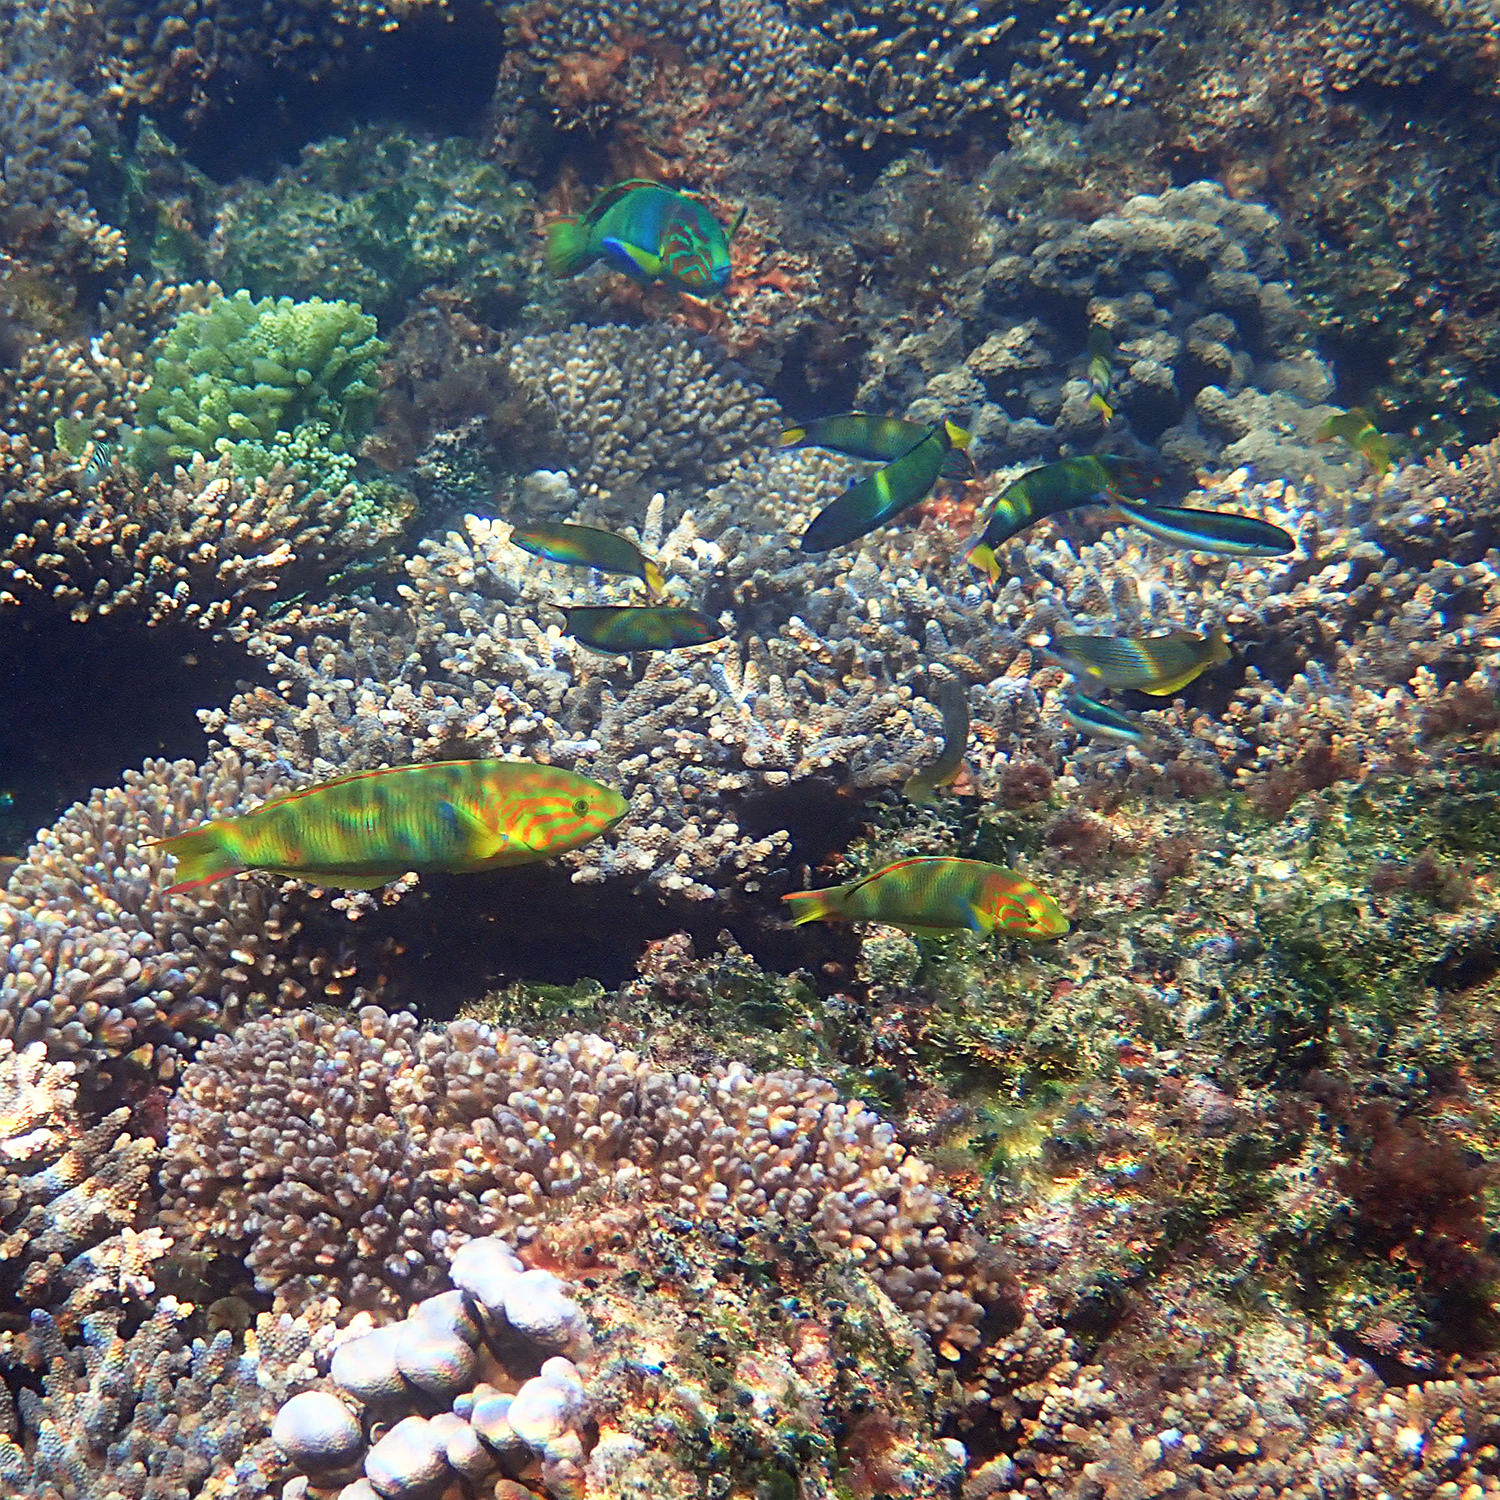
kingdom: Animalia
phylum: Chordata
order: Perciformes
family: Labridae
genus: Thalassoma
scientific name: Thalassoma lutescens
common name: Green moon wrasse
